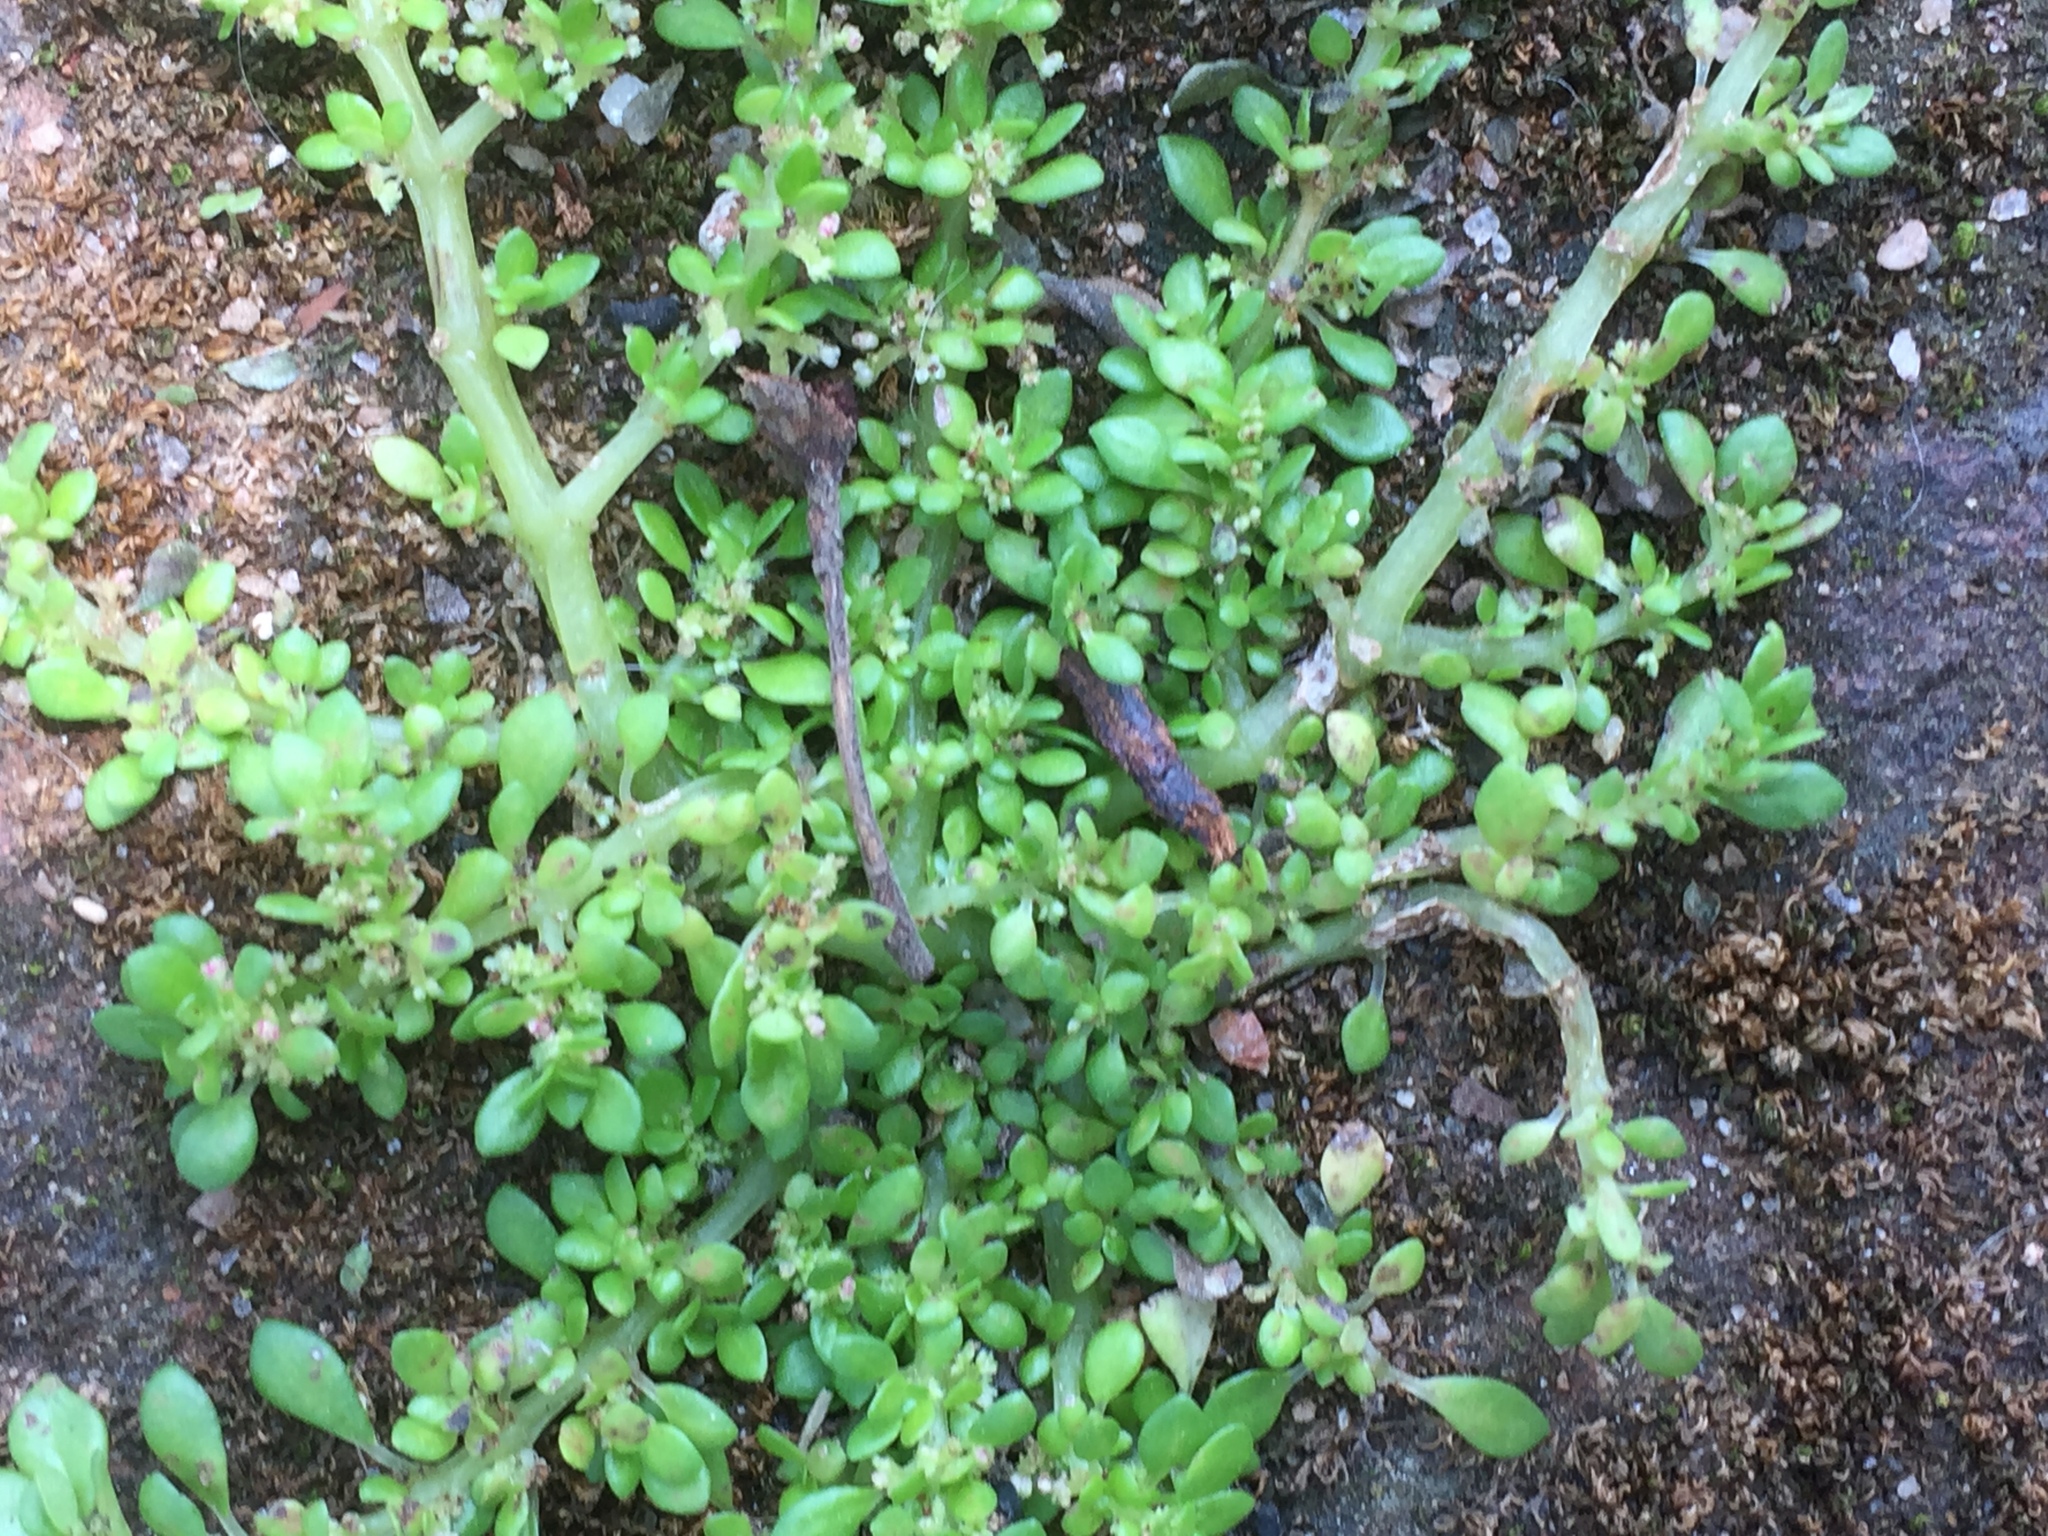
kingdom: Plantae
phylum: Tracheophyta
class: Magnoliopsida
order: Rosales
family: Urticaceae
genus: Pilea
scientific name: Pilea microphylla
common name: Artillery-plant
